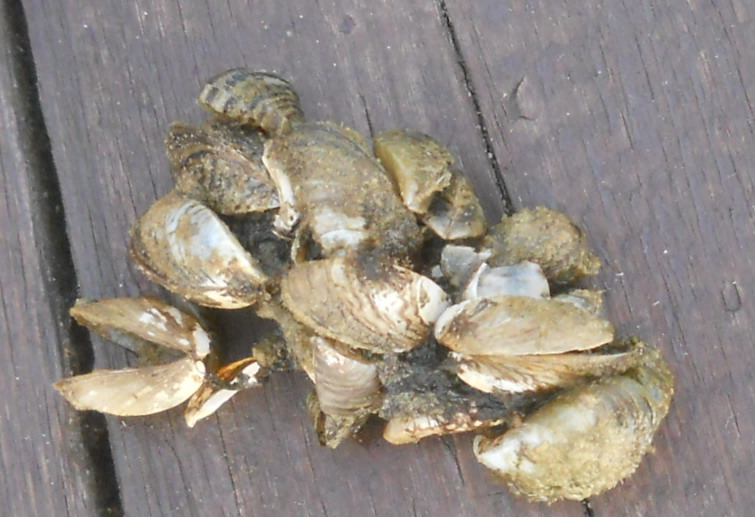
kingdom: Animalia
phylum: Mollusca
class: Bivalvia
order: Myida
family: Dreissenidae
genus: Dreissena
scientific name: Dreissena polymorpha
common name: Zebra mussel
